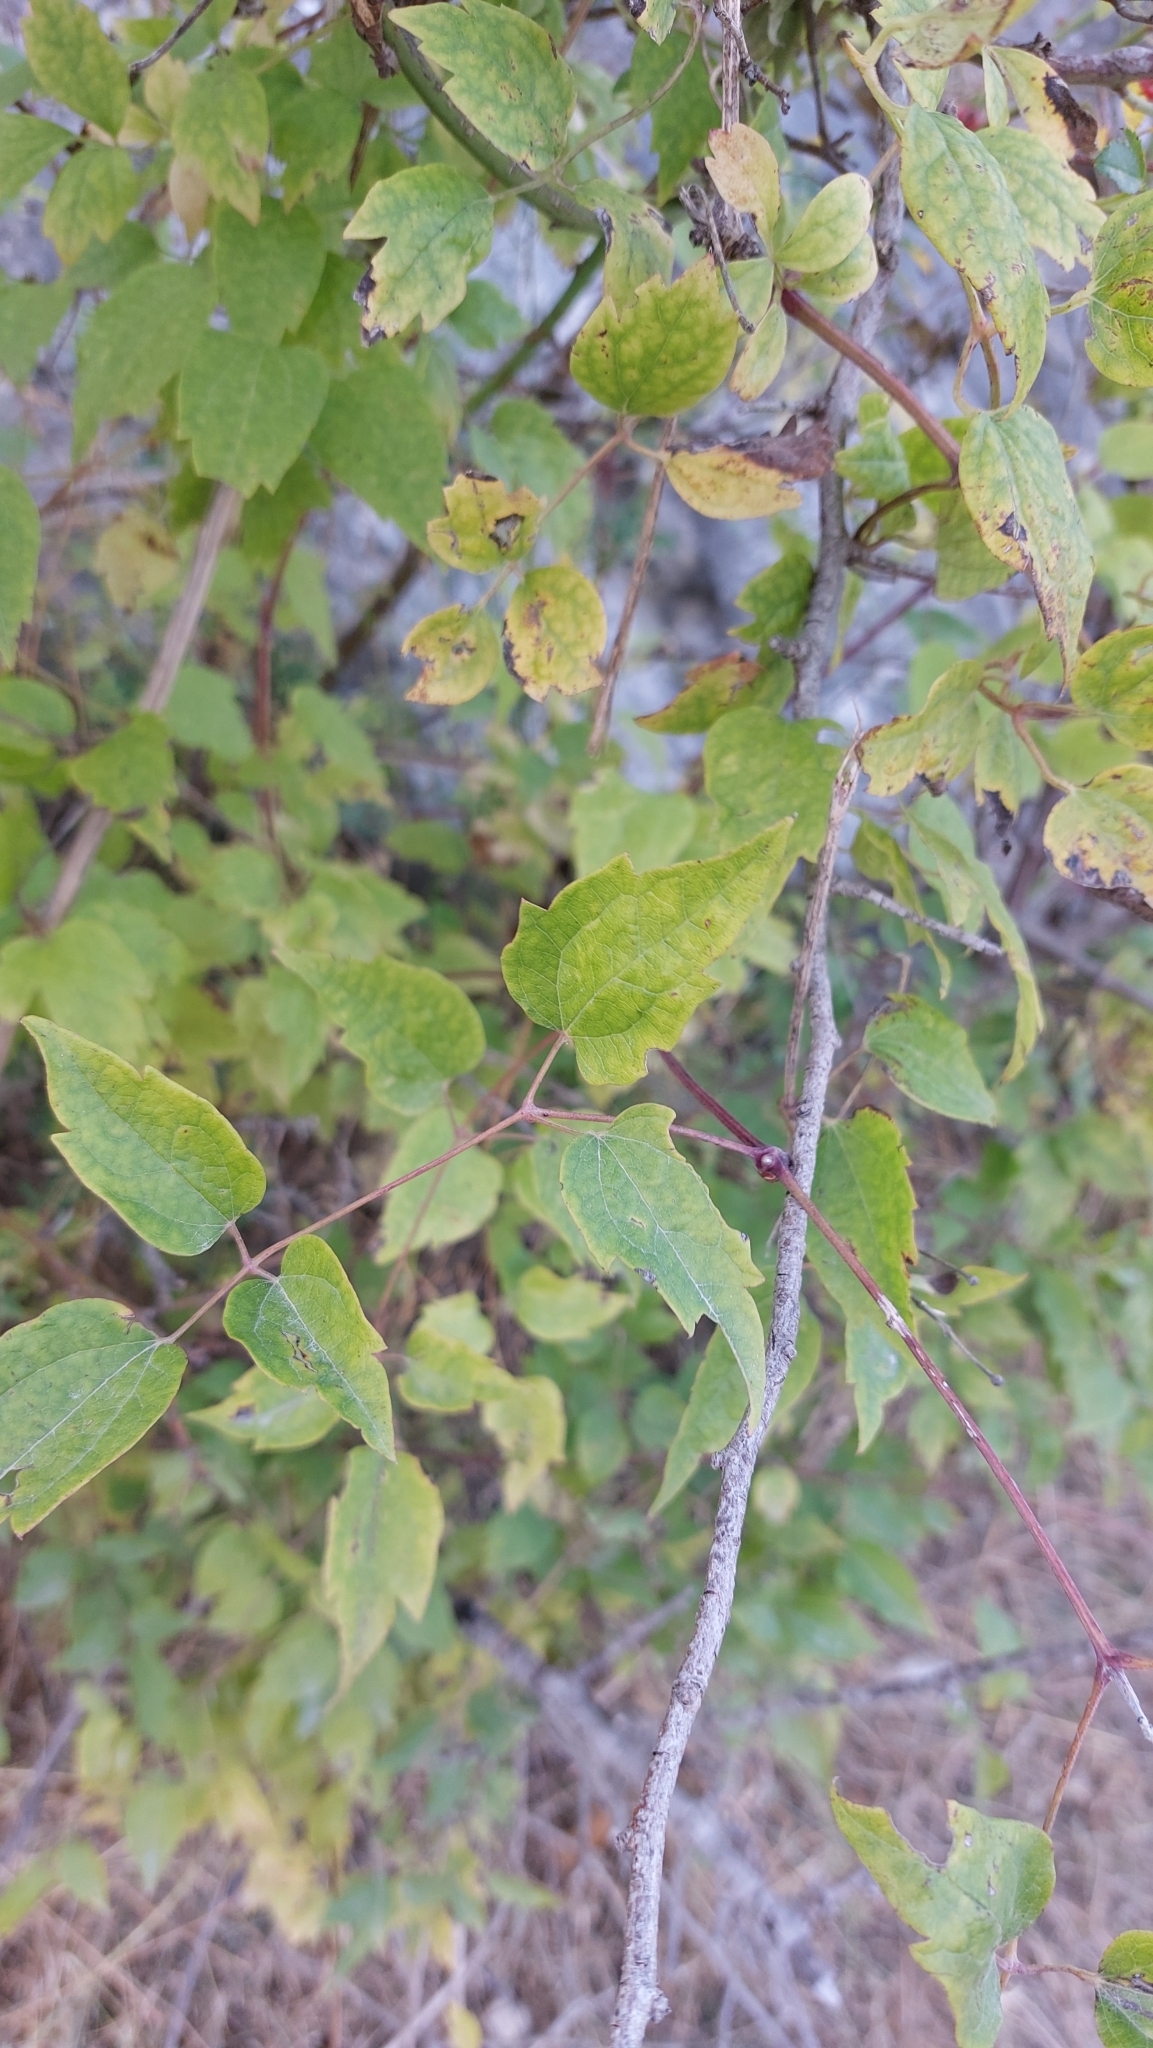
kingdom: Plantae
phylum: Tracheophyta
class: Magnoliopsida
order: Ranunculales
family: Ranunculaceae
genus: Clematis
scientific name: Clematis vitalba
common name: Evergreen clematis
